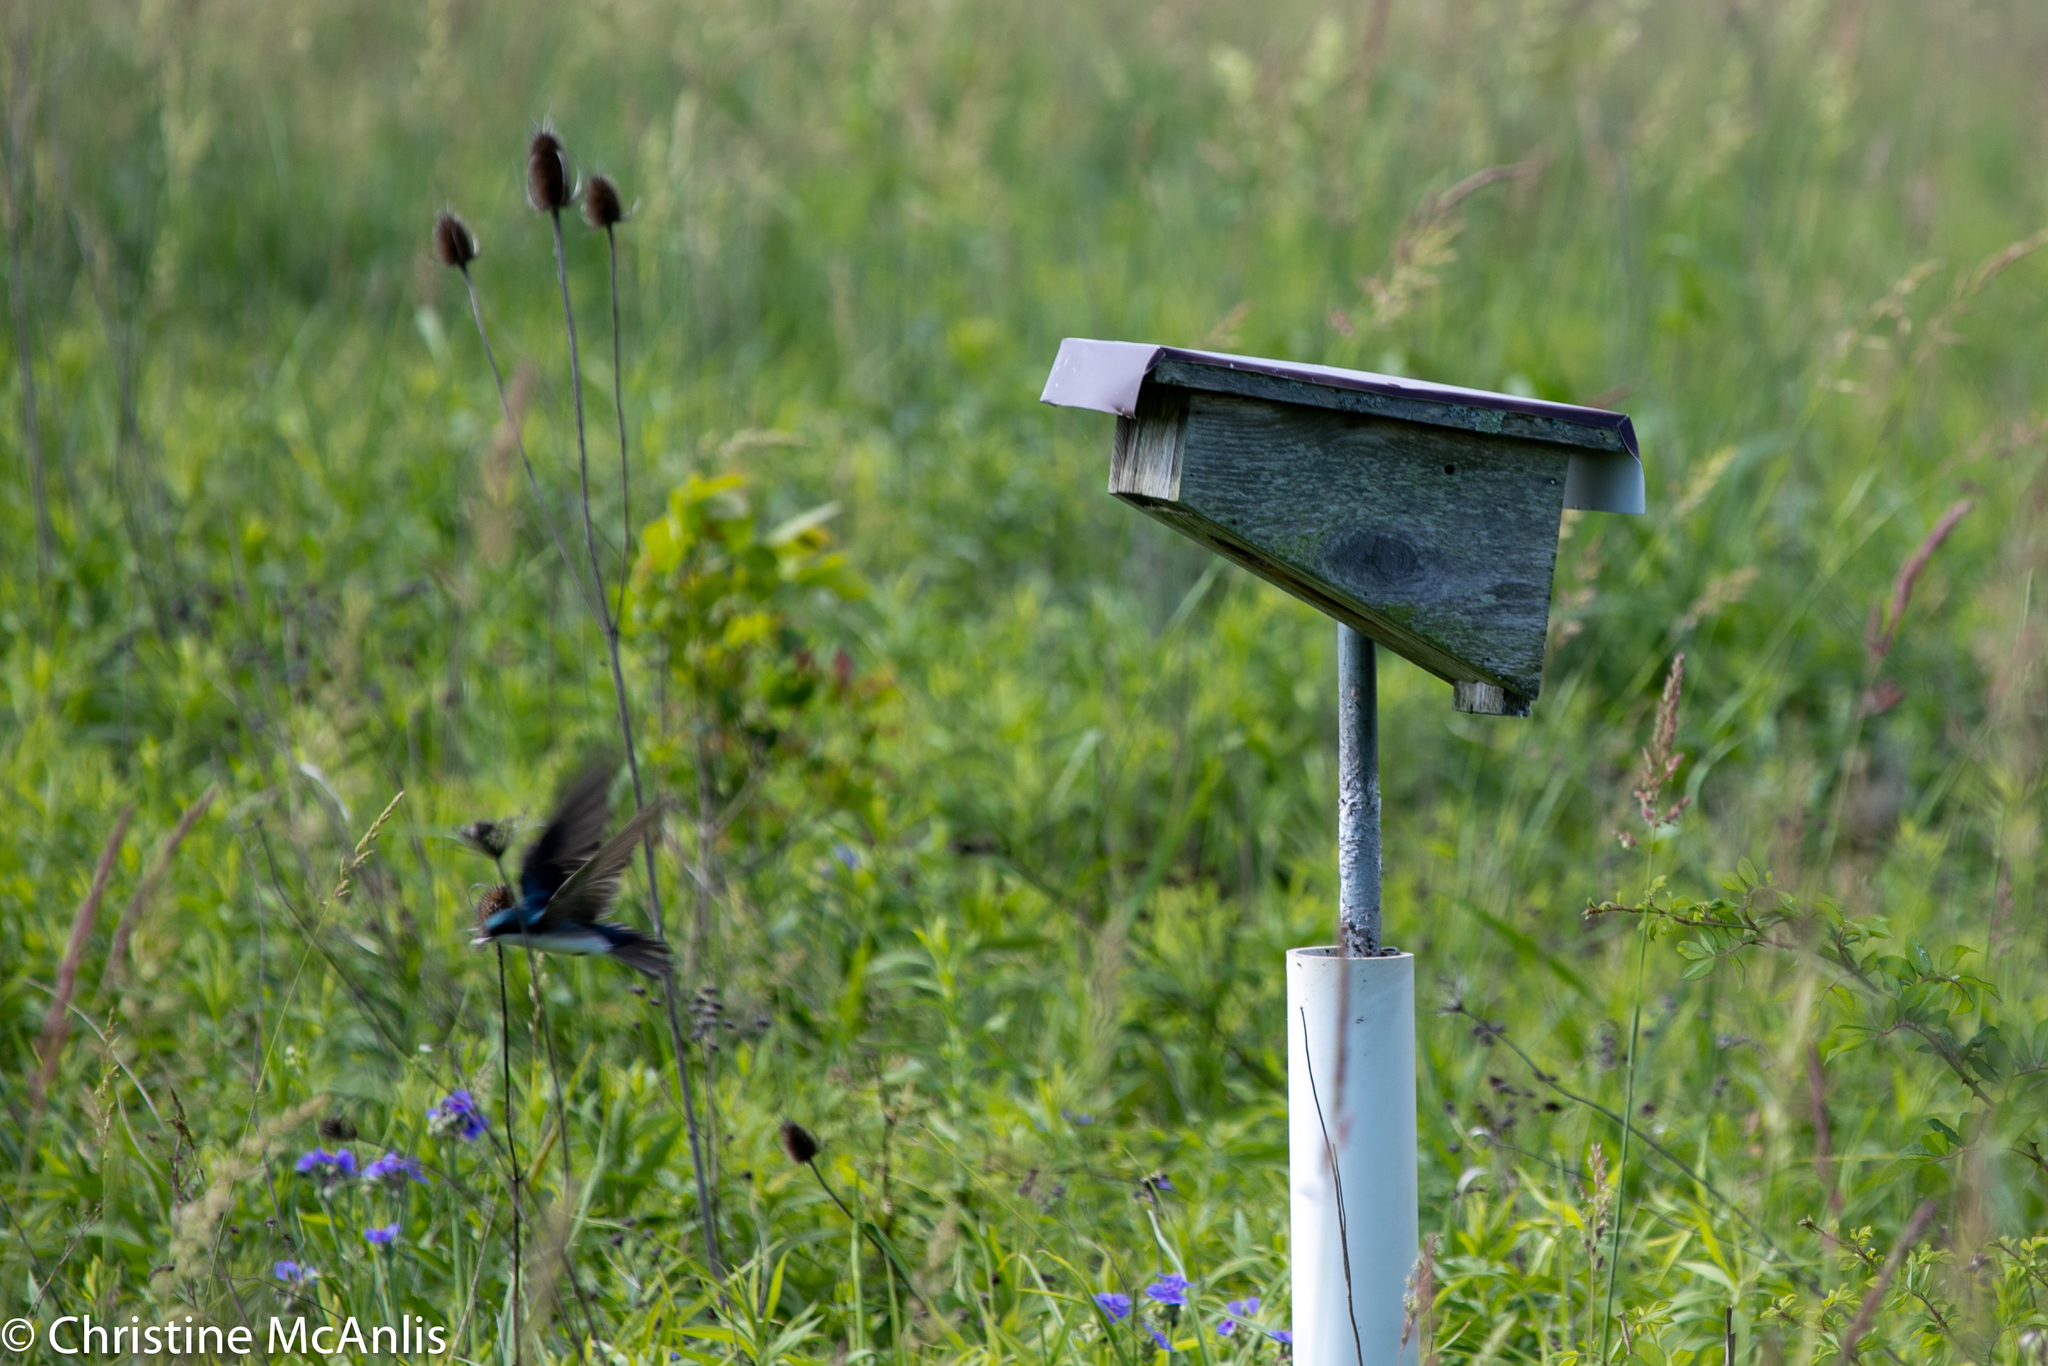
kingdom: Animalia
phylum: Chordata
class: Aves
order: Passeriformes
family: Hirundinidae
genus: Tachycineta
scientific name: Tachycineta bicolor
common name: Tree swallow
